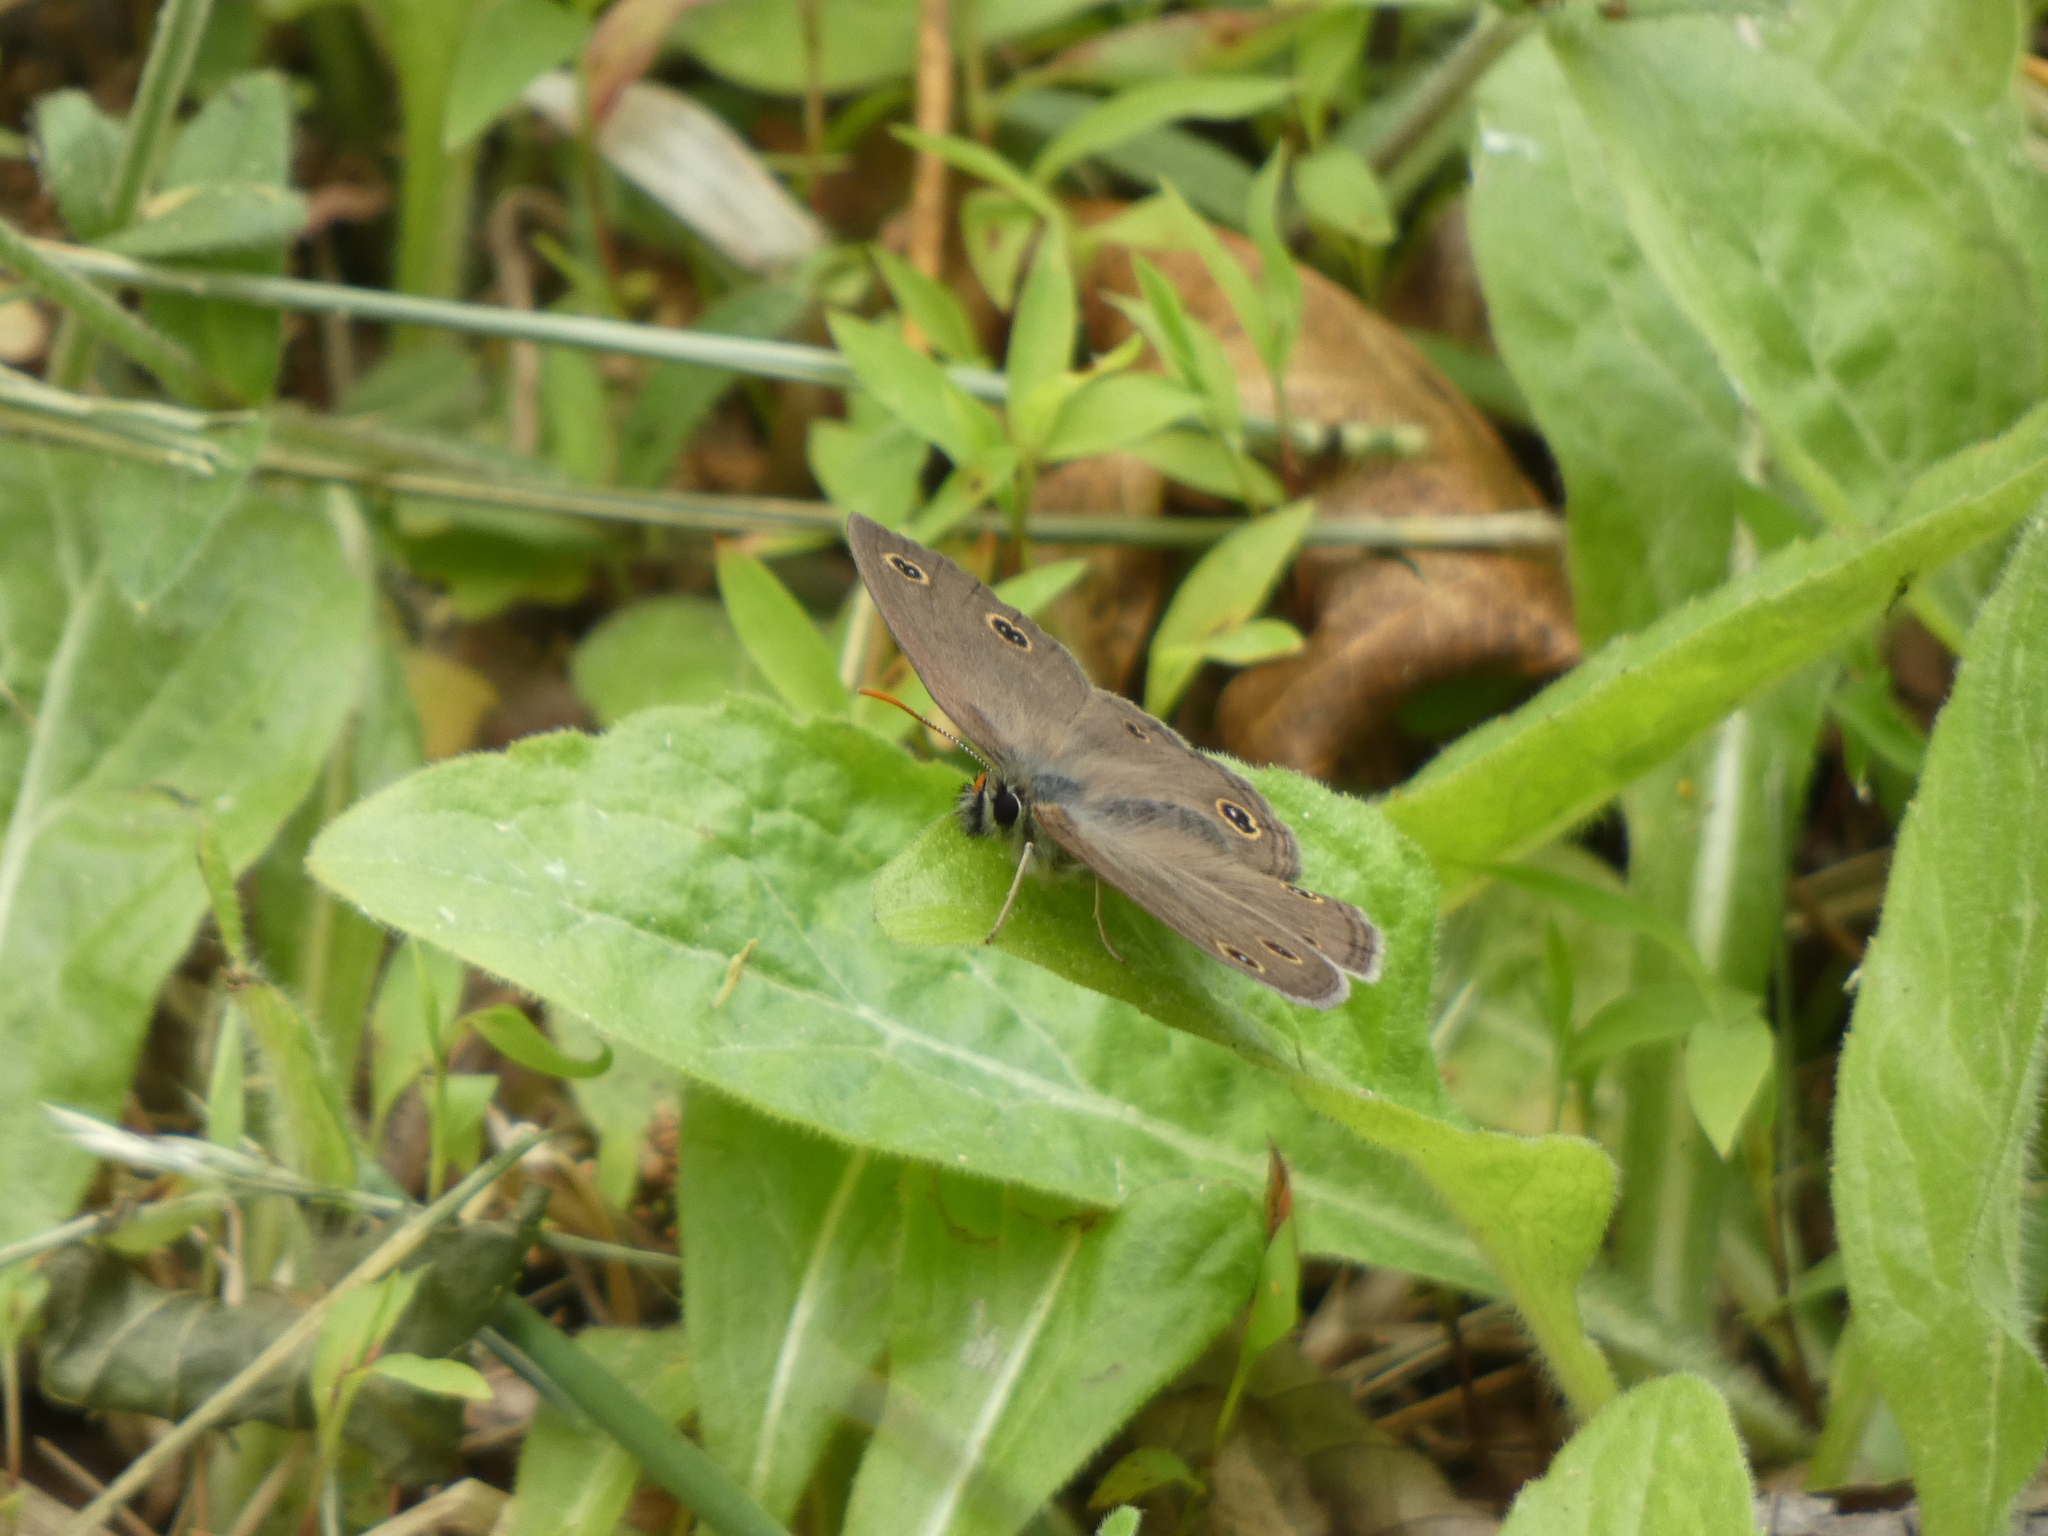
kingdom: Animalia
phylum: Arthropoda
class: Insecta
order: Lepidoptera
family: Nymphalidae
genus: Euptychia
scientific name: Euptychia cymela
